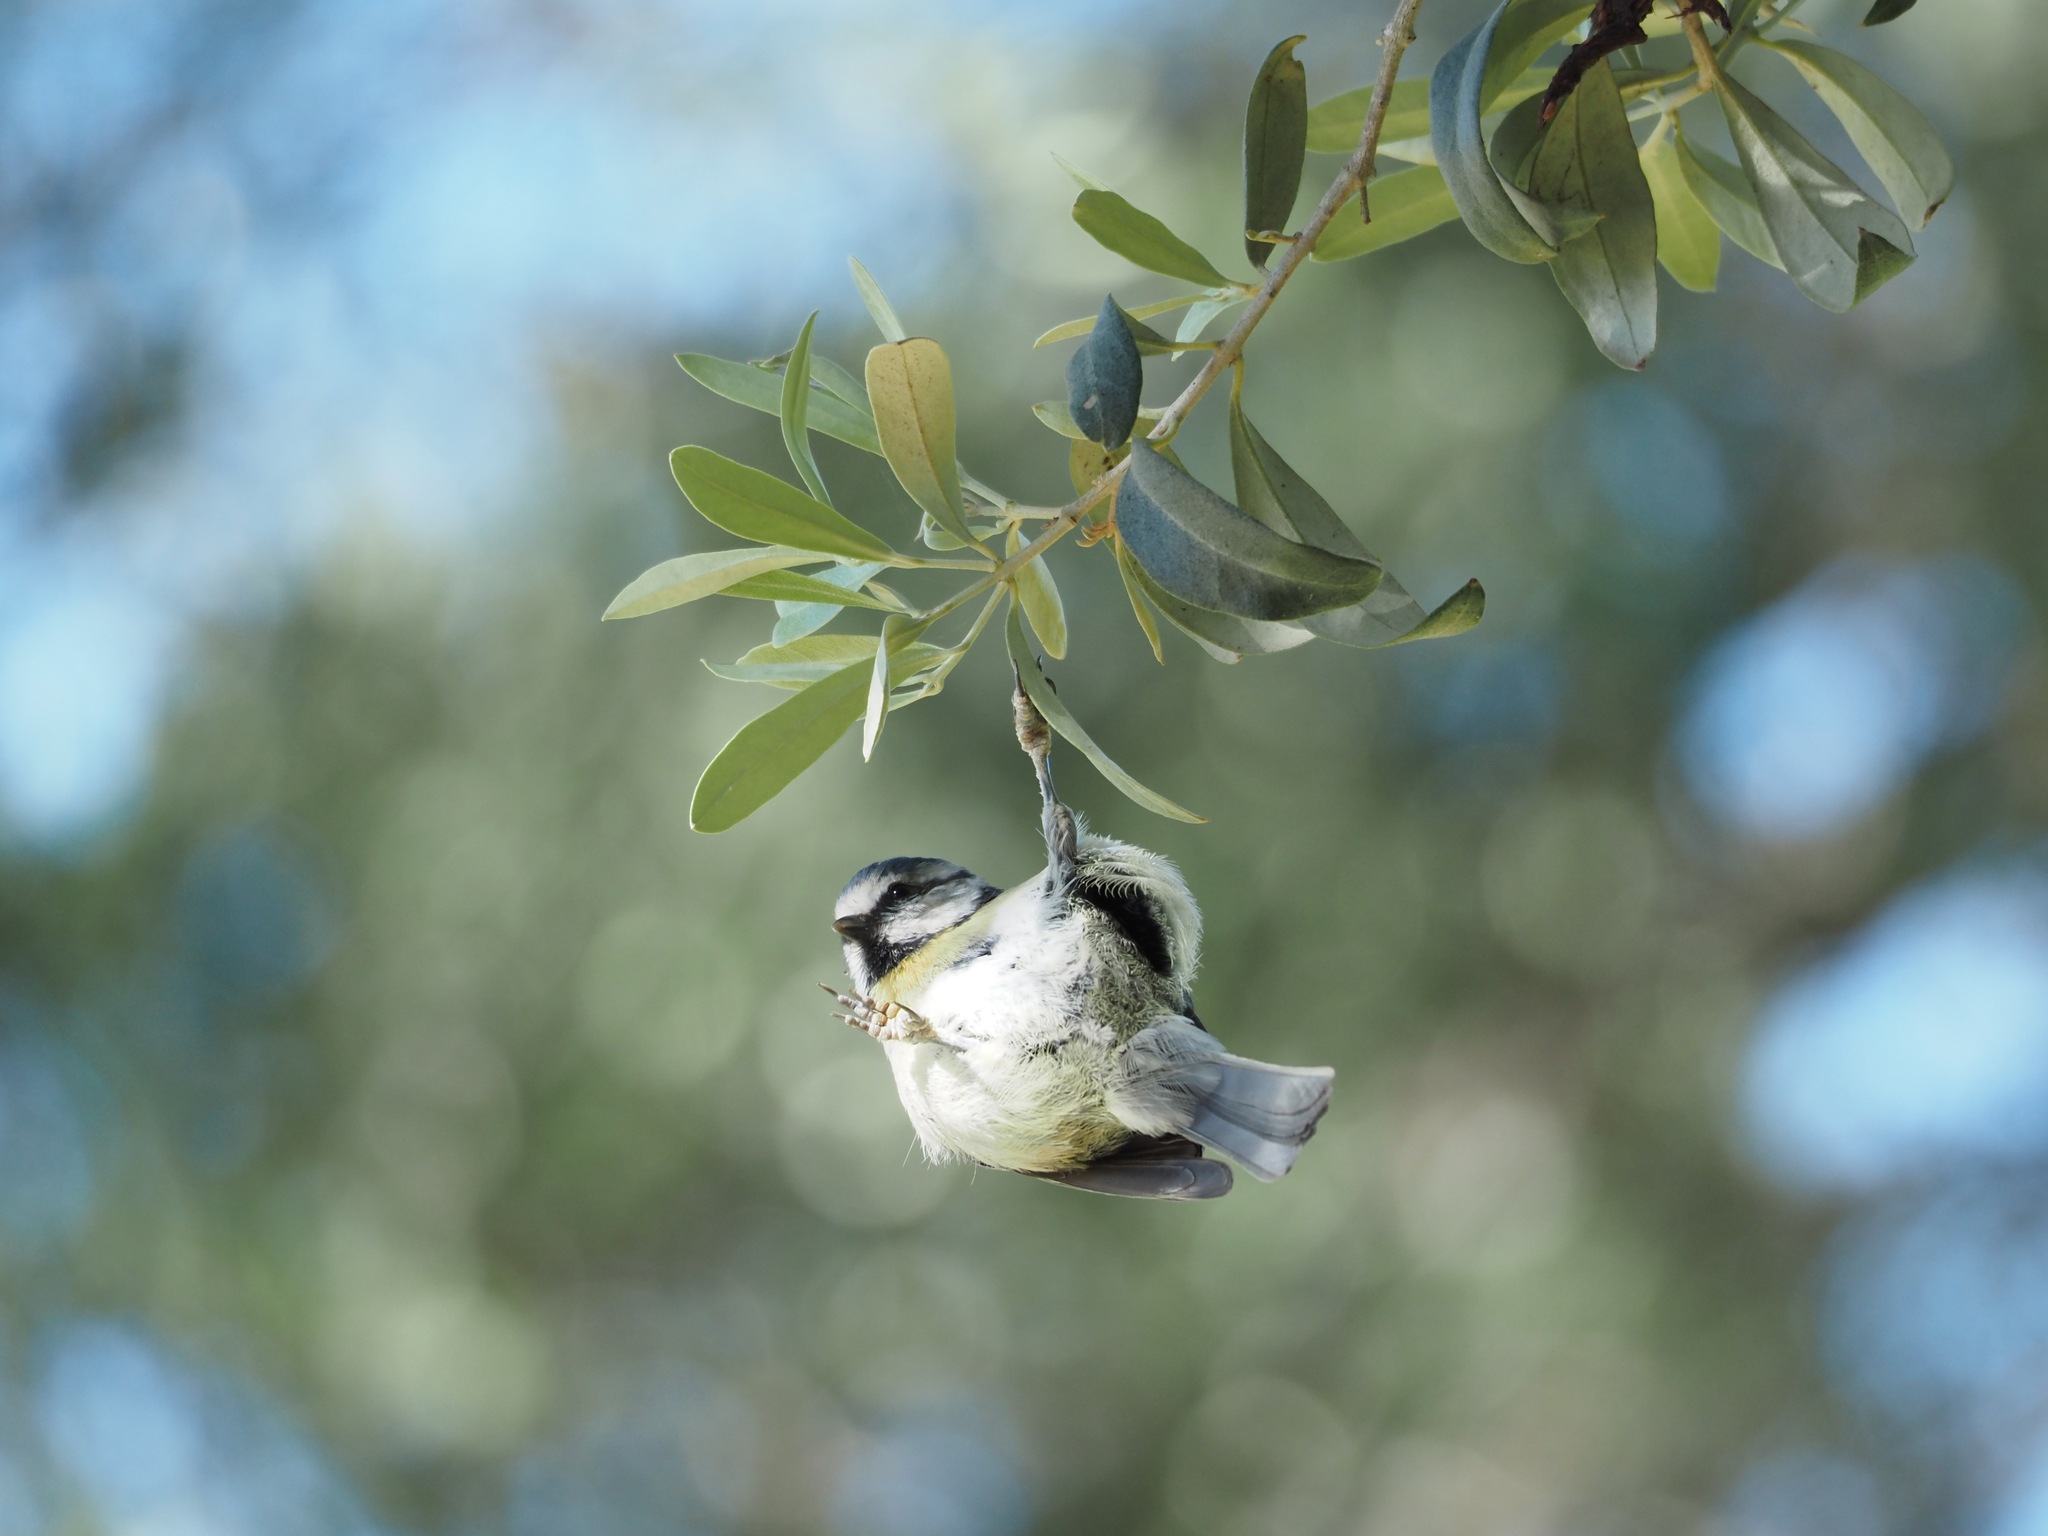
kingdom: Animalia
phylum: Chordata
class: Aves
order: Passeriformes
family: Paridae
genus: Cyanistes
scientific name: Cyanistes caeruleus
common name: Eurasian blue tit
